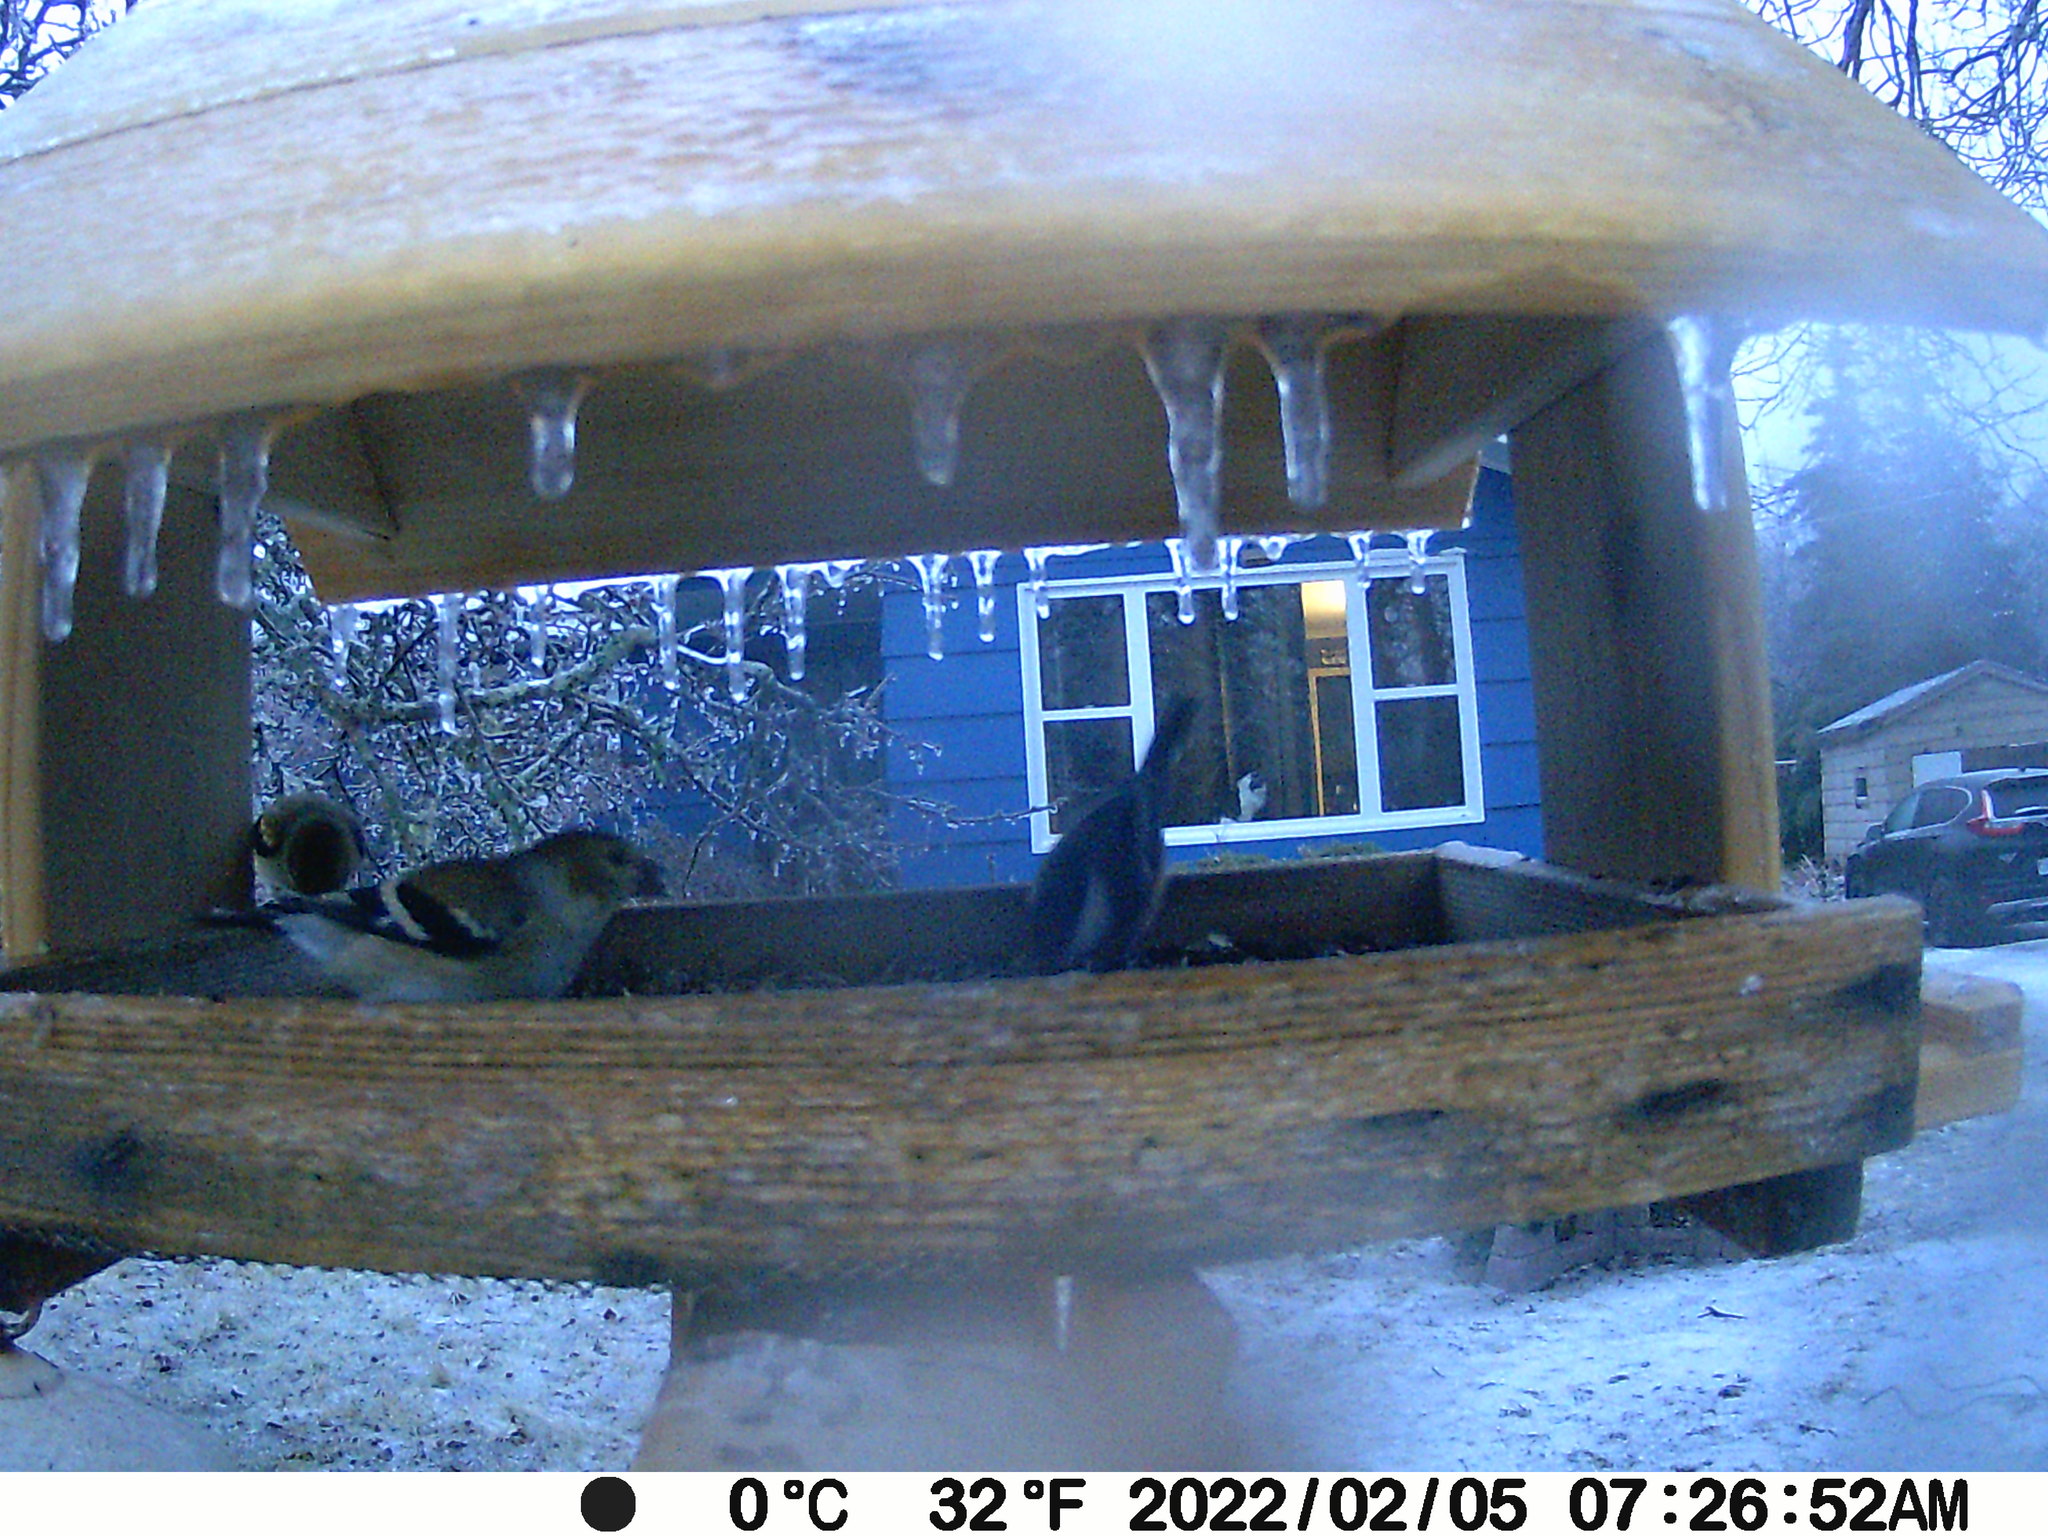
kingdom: Animalia
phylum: Chordata
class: Aves
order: Passeriformes
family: Fringillidae
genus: Spinus
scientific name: Spinus tristis
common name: American goldfinch
